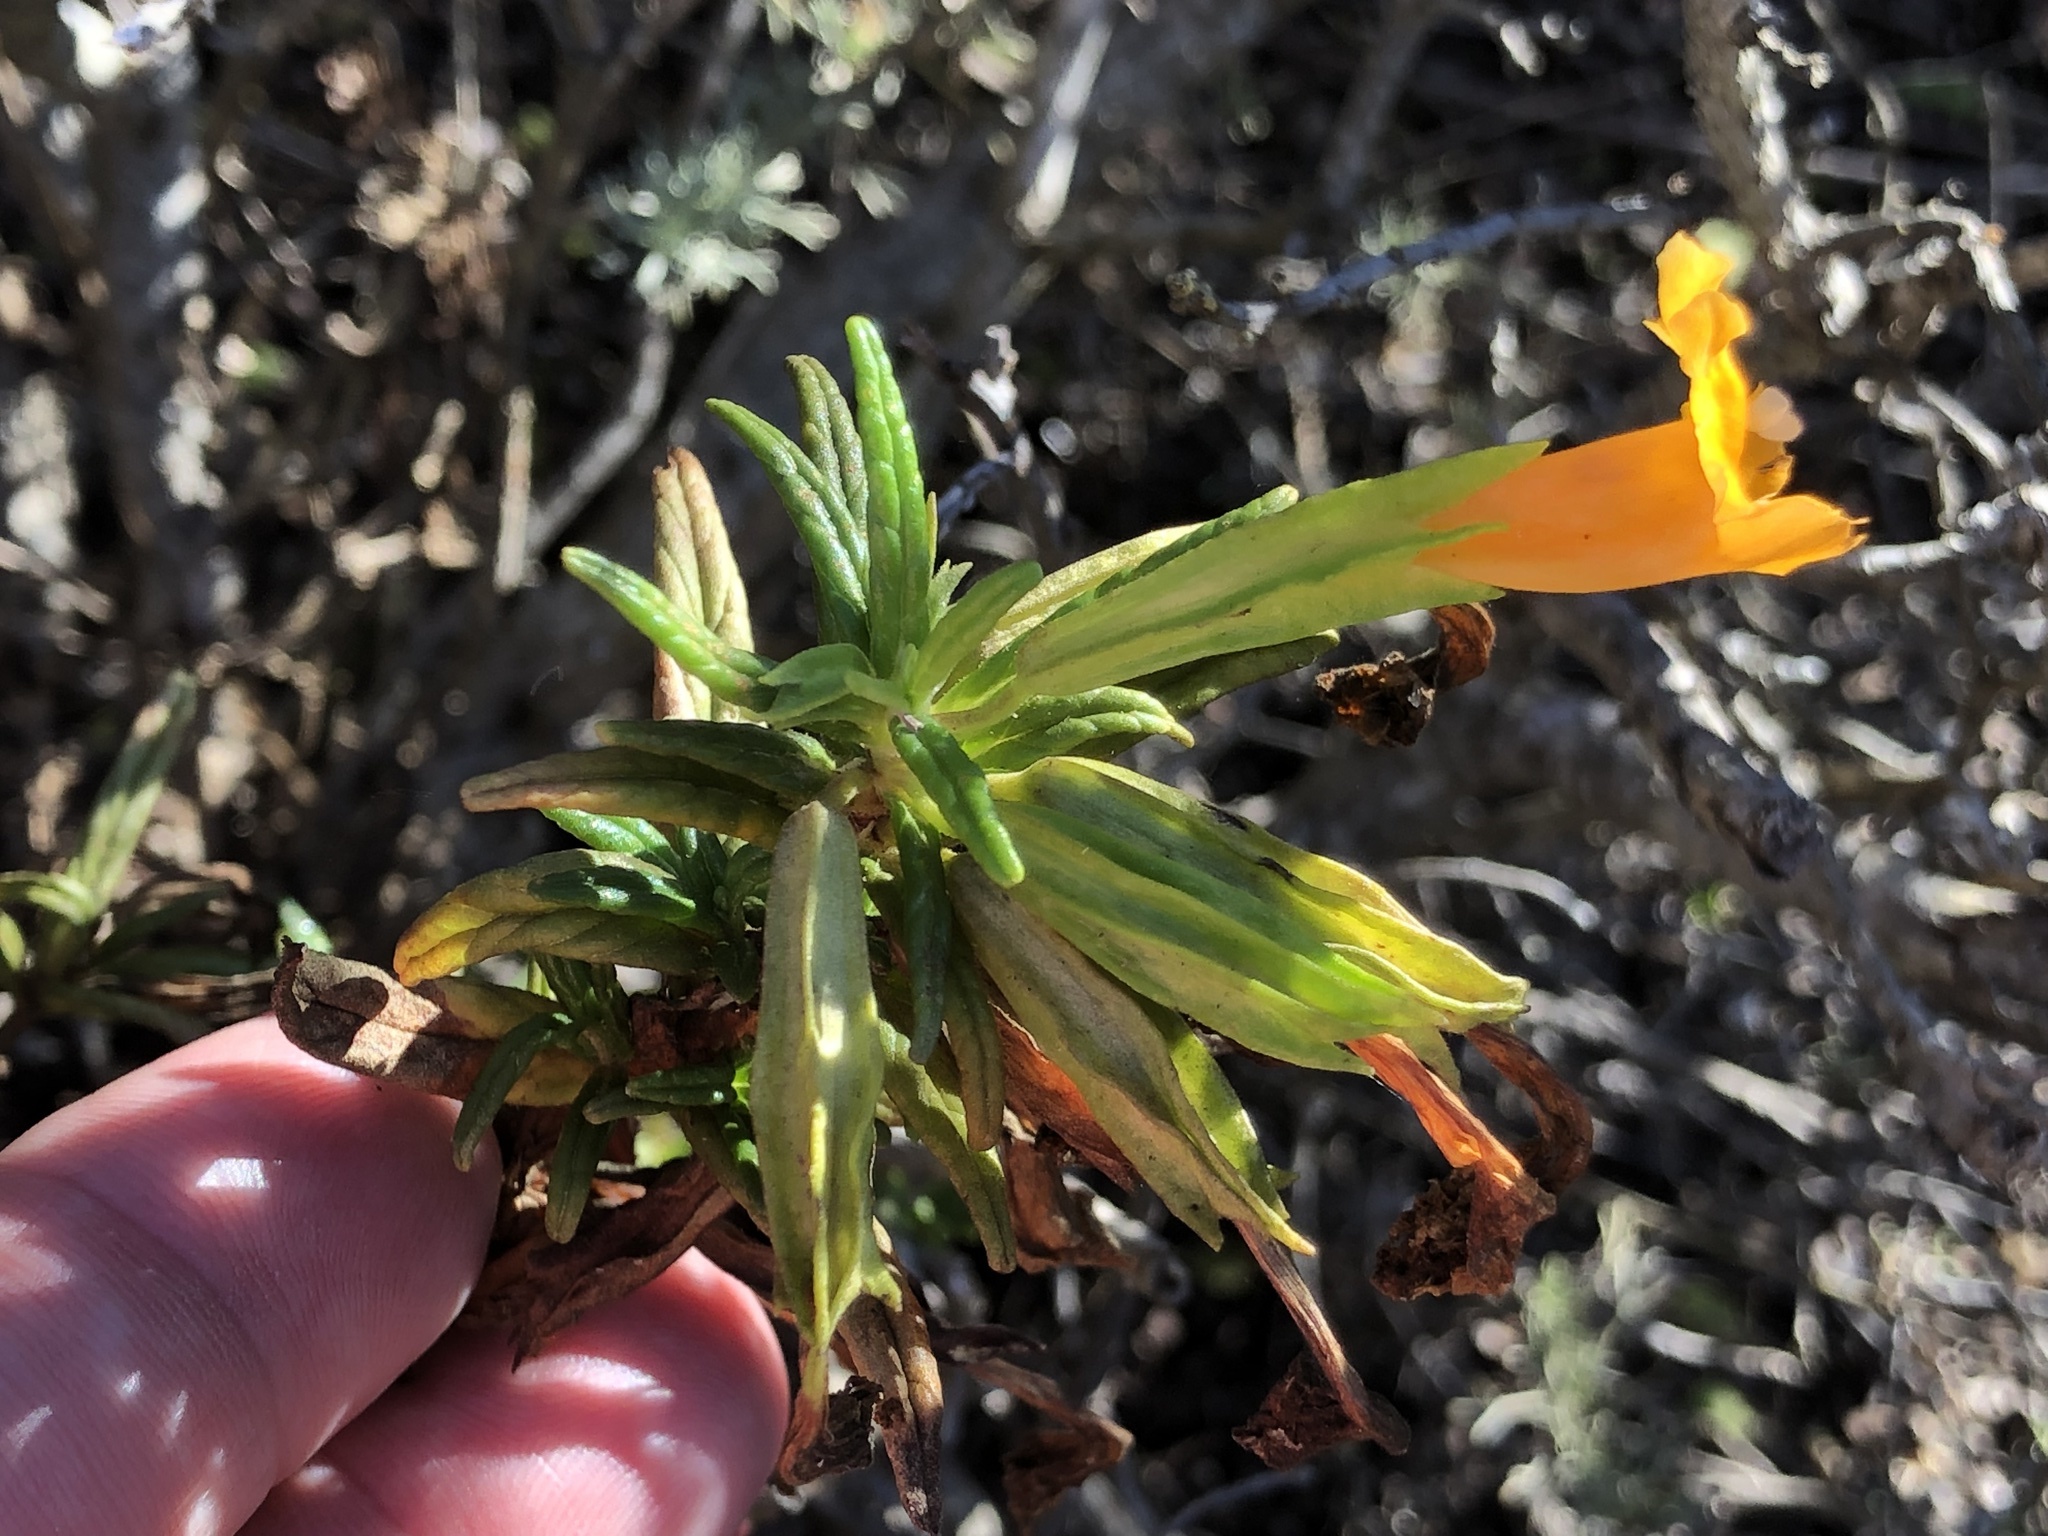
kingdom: Plantae
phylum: Tracheophyta
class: Magnoliopsida
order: Lamiales
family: Phrymaceae
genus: Diplacus
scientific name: Diplacus aurantiacus
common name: Bush monkey-flower
